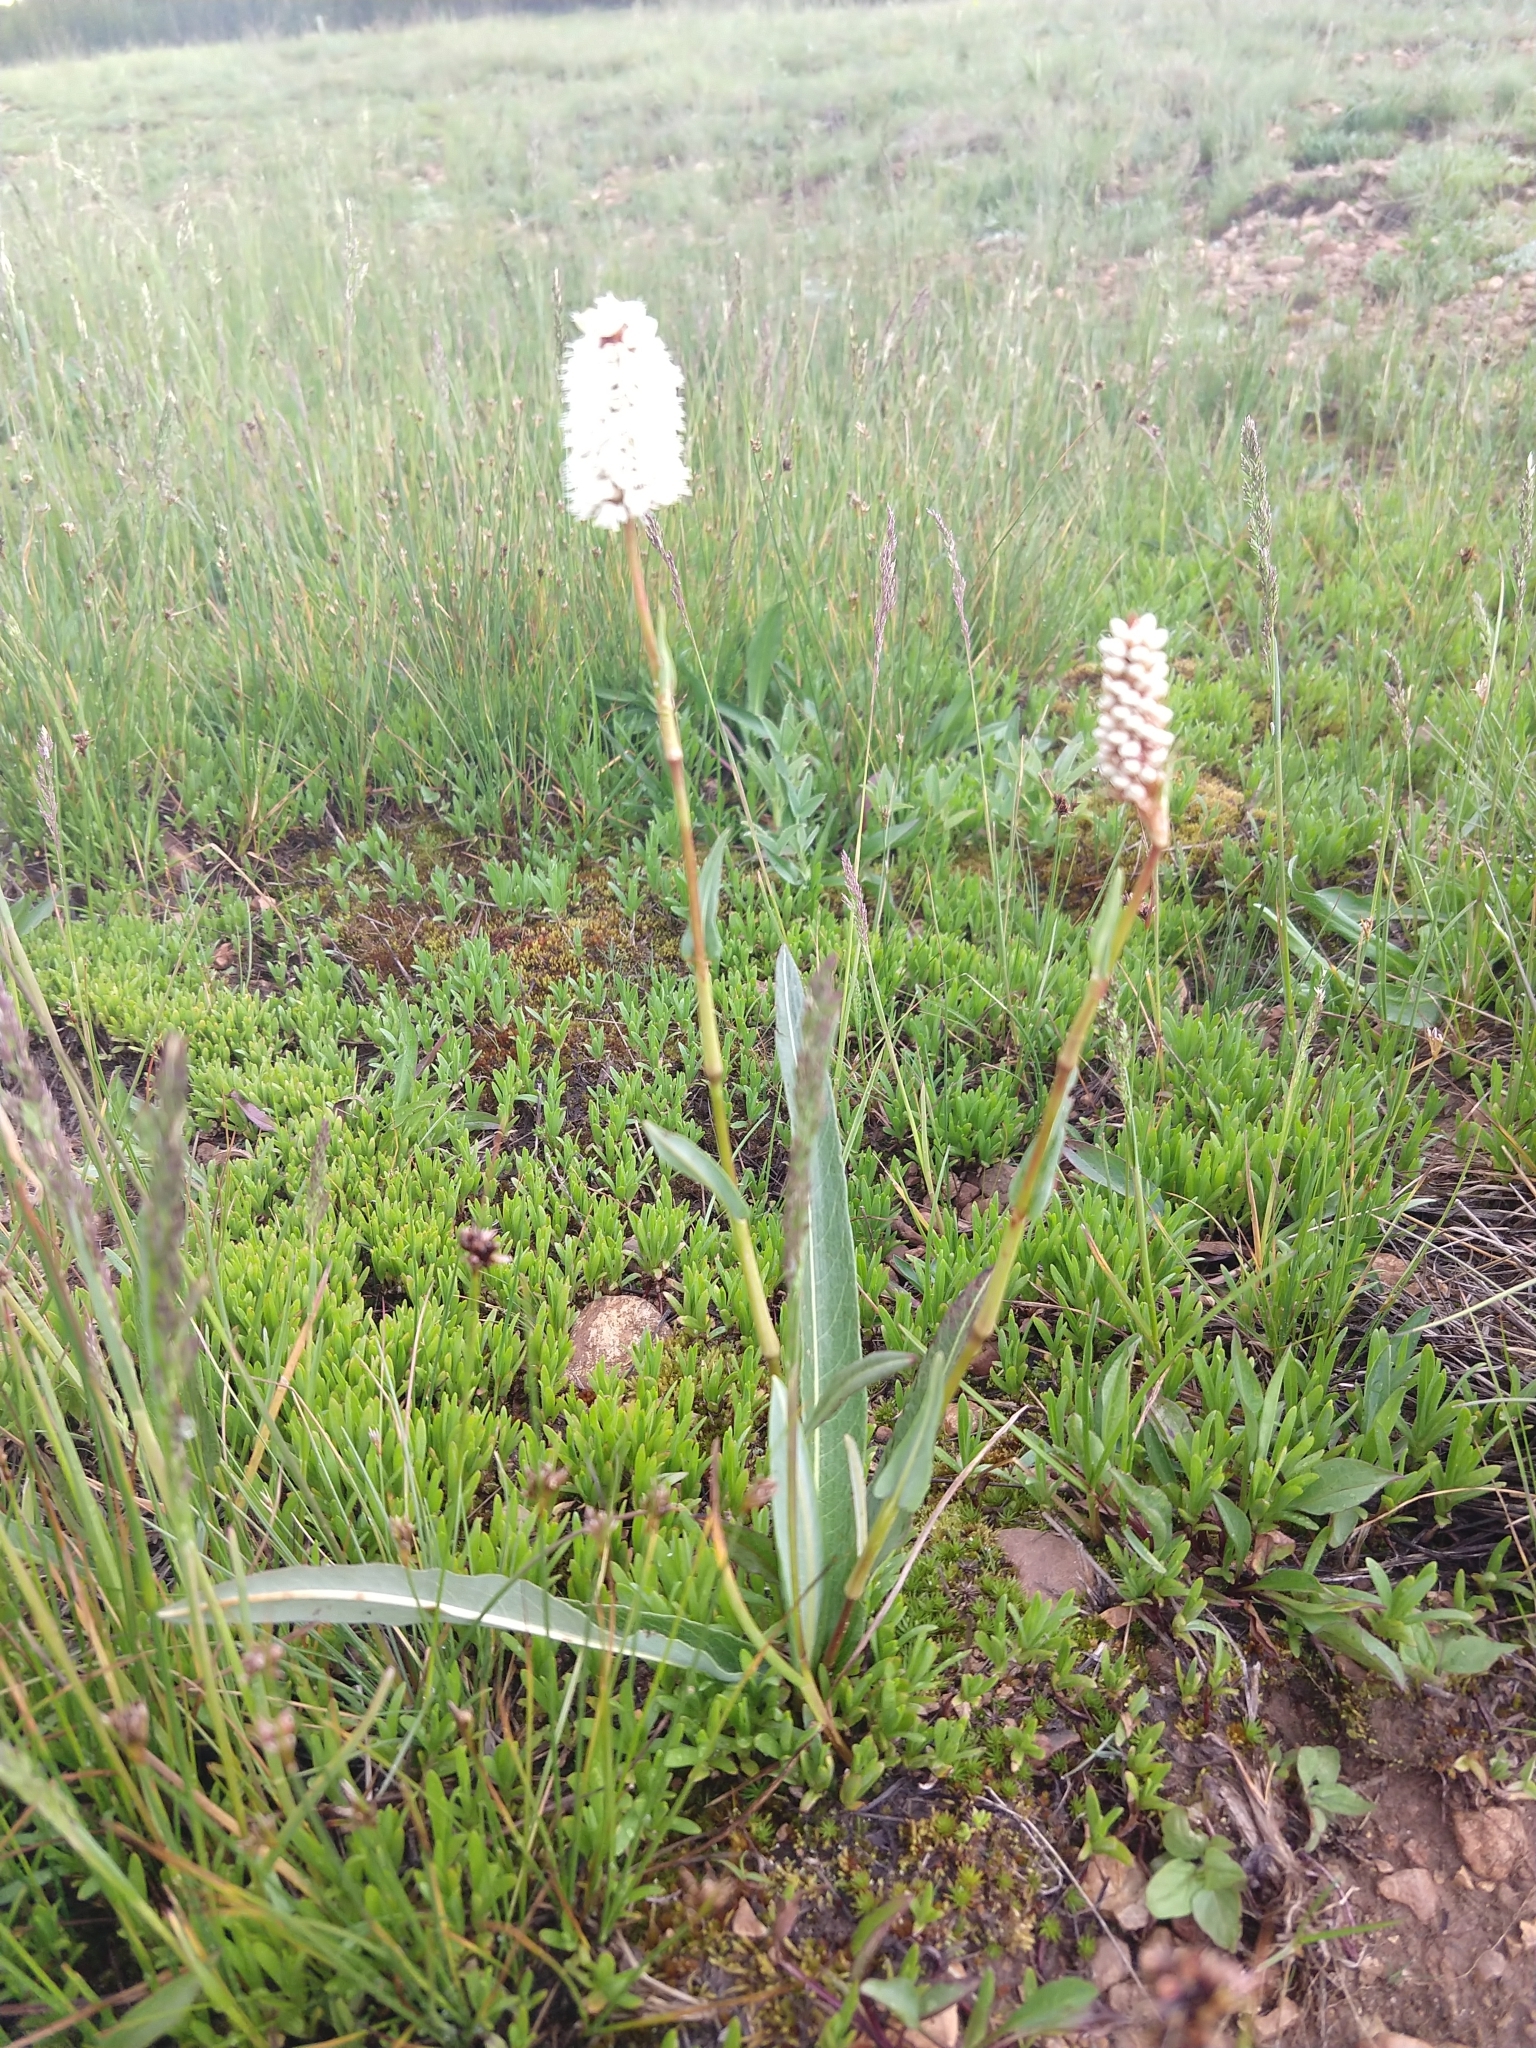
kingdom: Plantae
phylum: Tracheophyta
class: Magnoliopsida
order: Caryophyllales
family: Polygonaceae
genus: Bistorta
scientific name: Bistorta bistortoides
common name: American bistort
